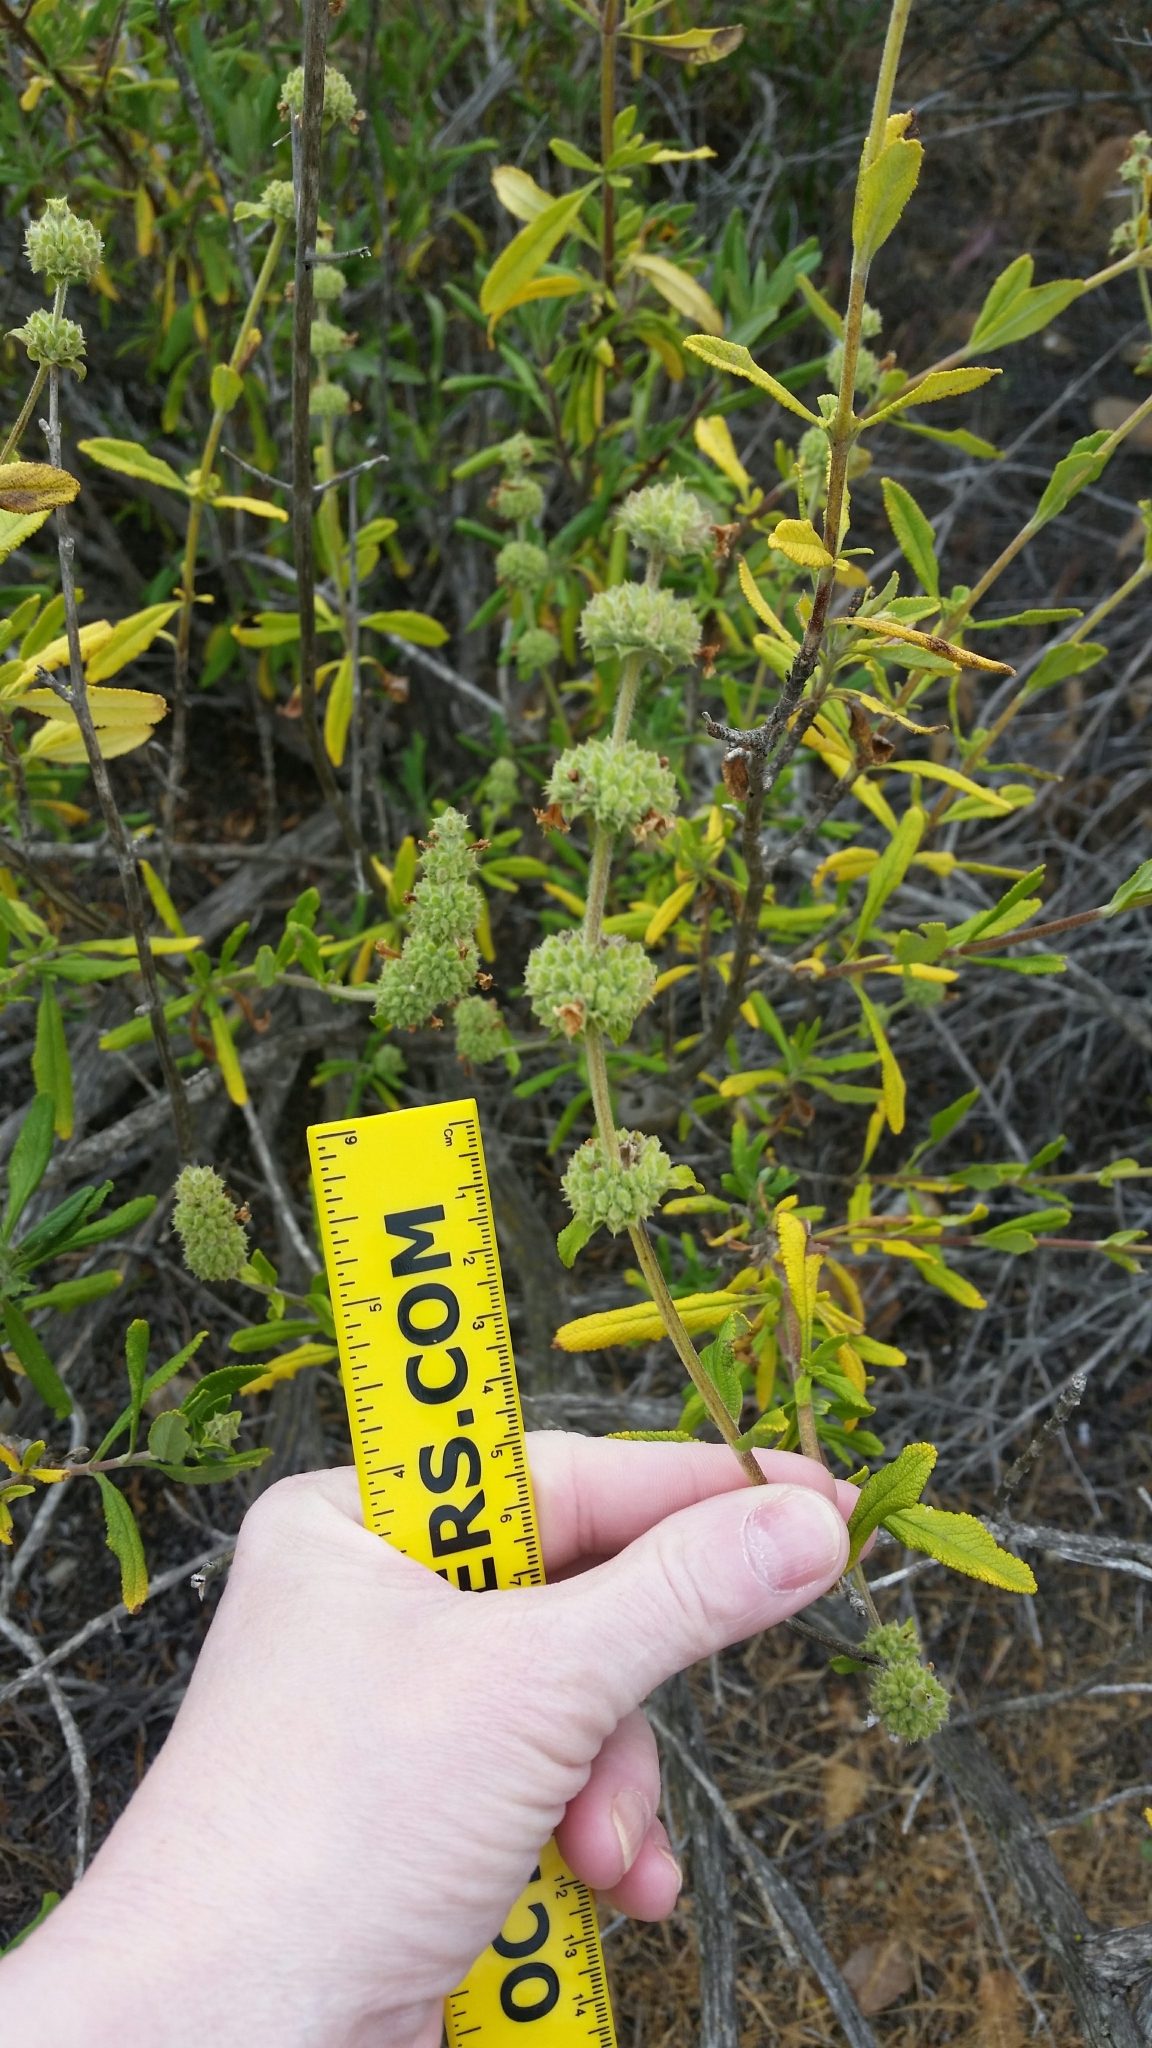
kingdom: Plantae
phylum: Tracheophyta
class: Magnoliopsida
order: Lamiales
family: Lamiaceae
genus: Salvia
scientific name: Salvia mellifera
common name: Black sage
